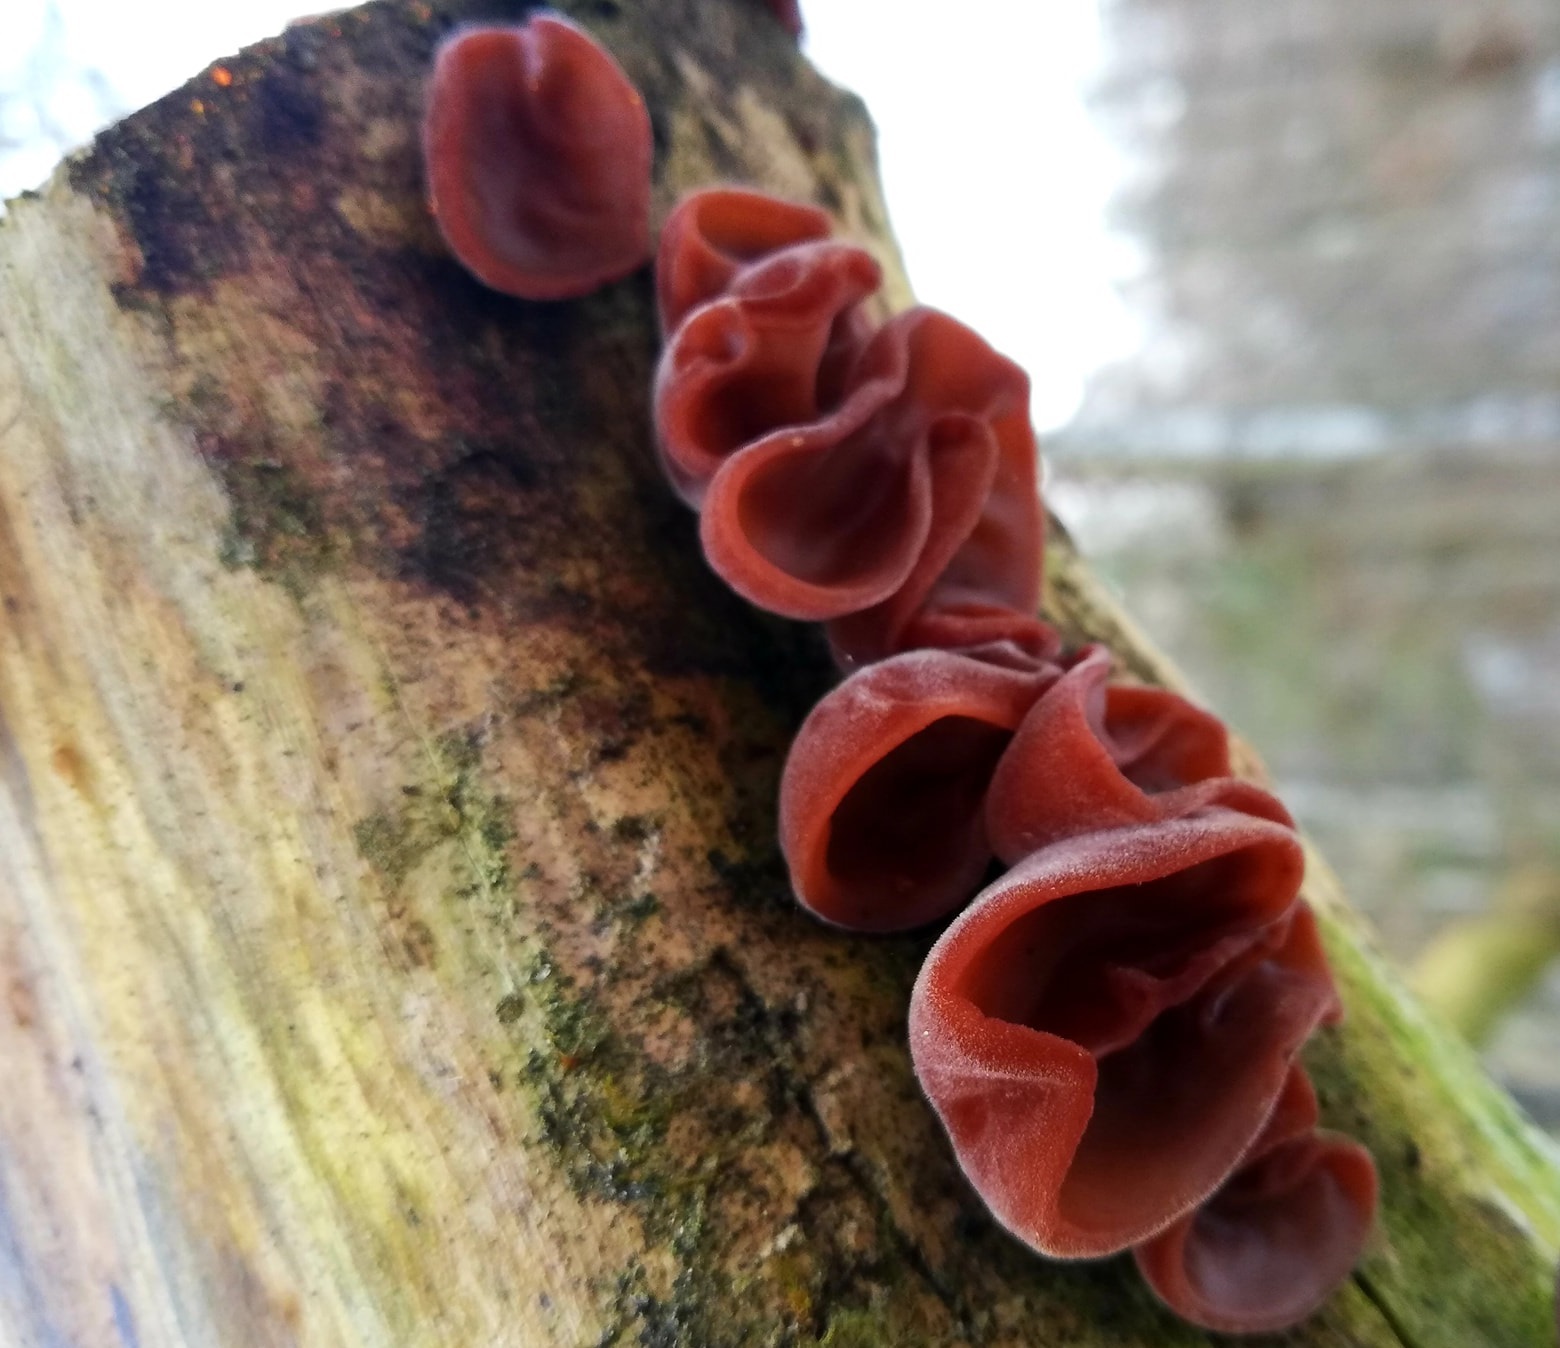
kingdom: Fungi
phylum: Basidiomycota
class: Agaricomycetes
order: Auriculariales
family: Auriculariaceae
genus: Auricularia
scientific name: Auricularia auricula-judae
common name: Jelly ear
